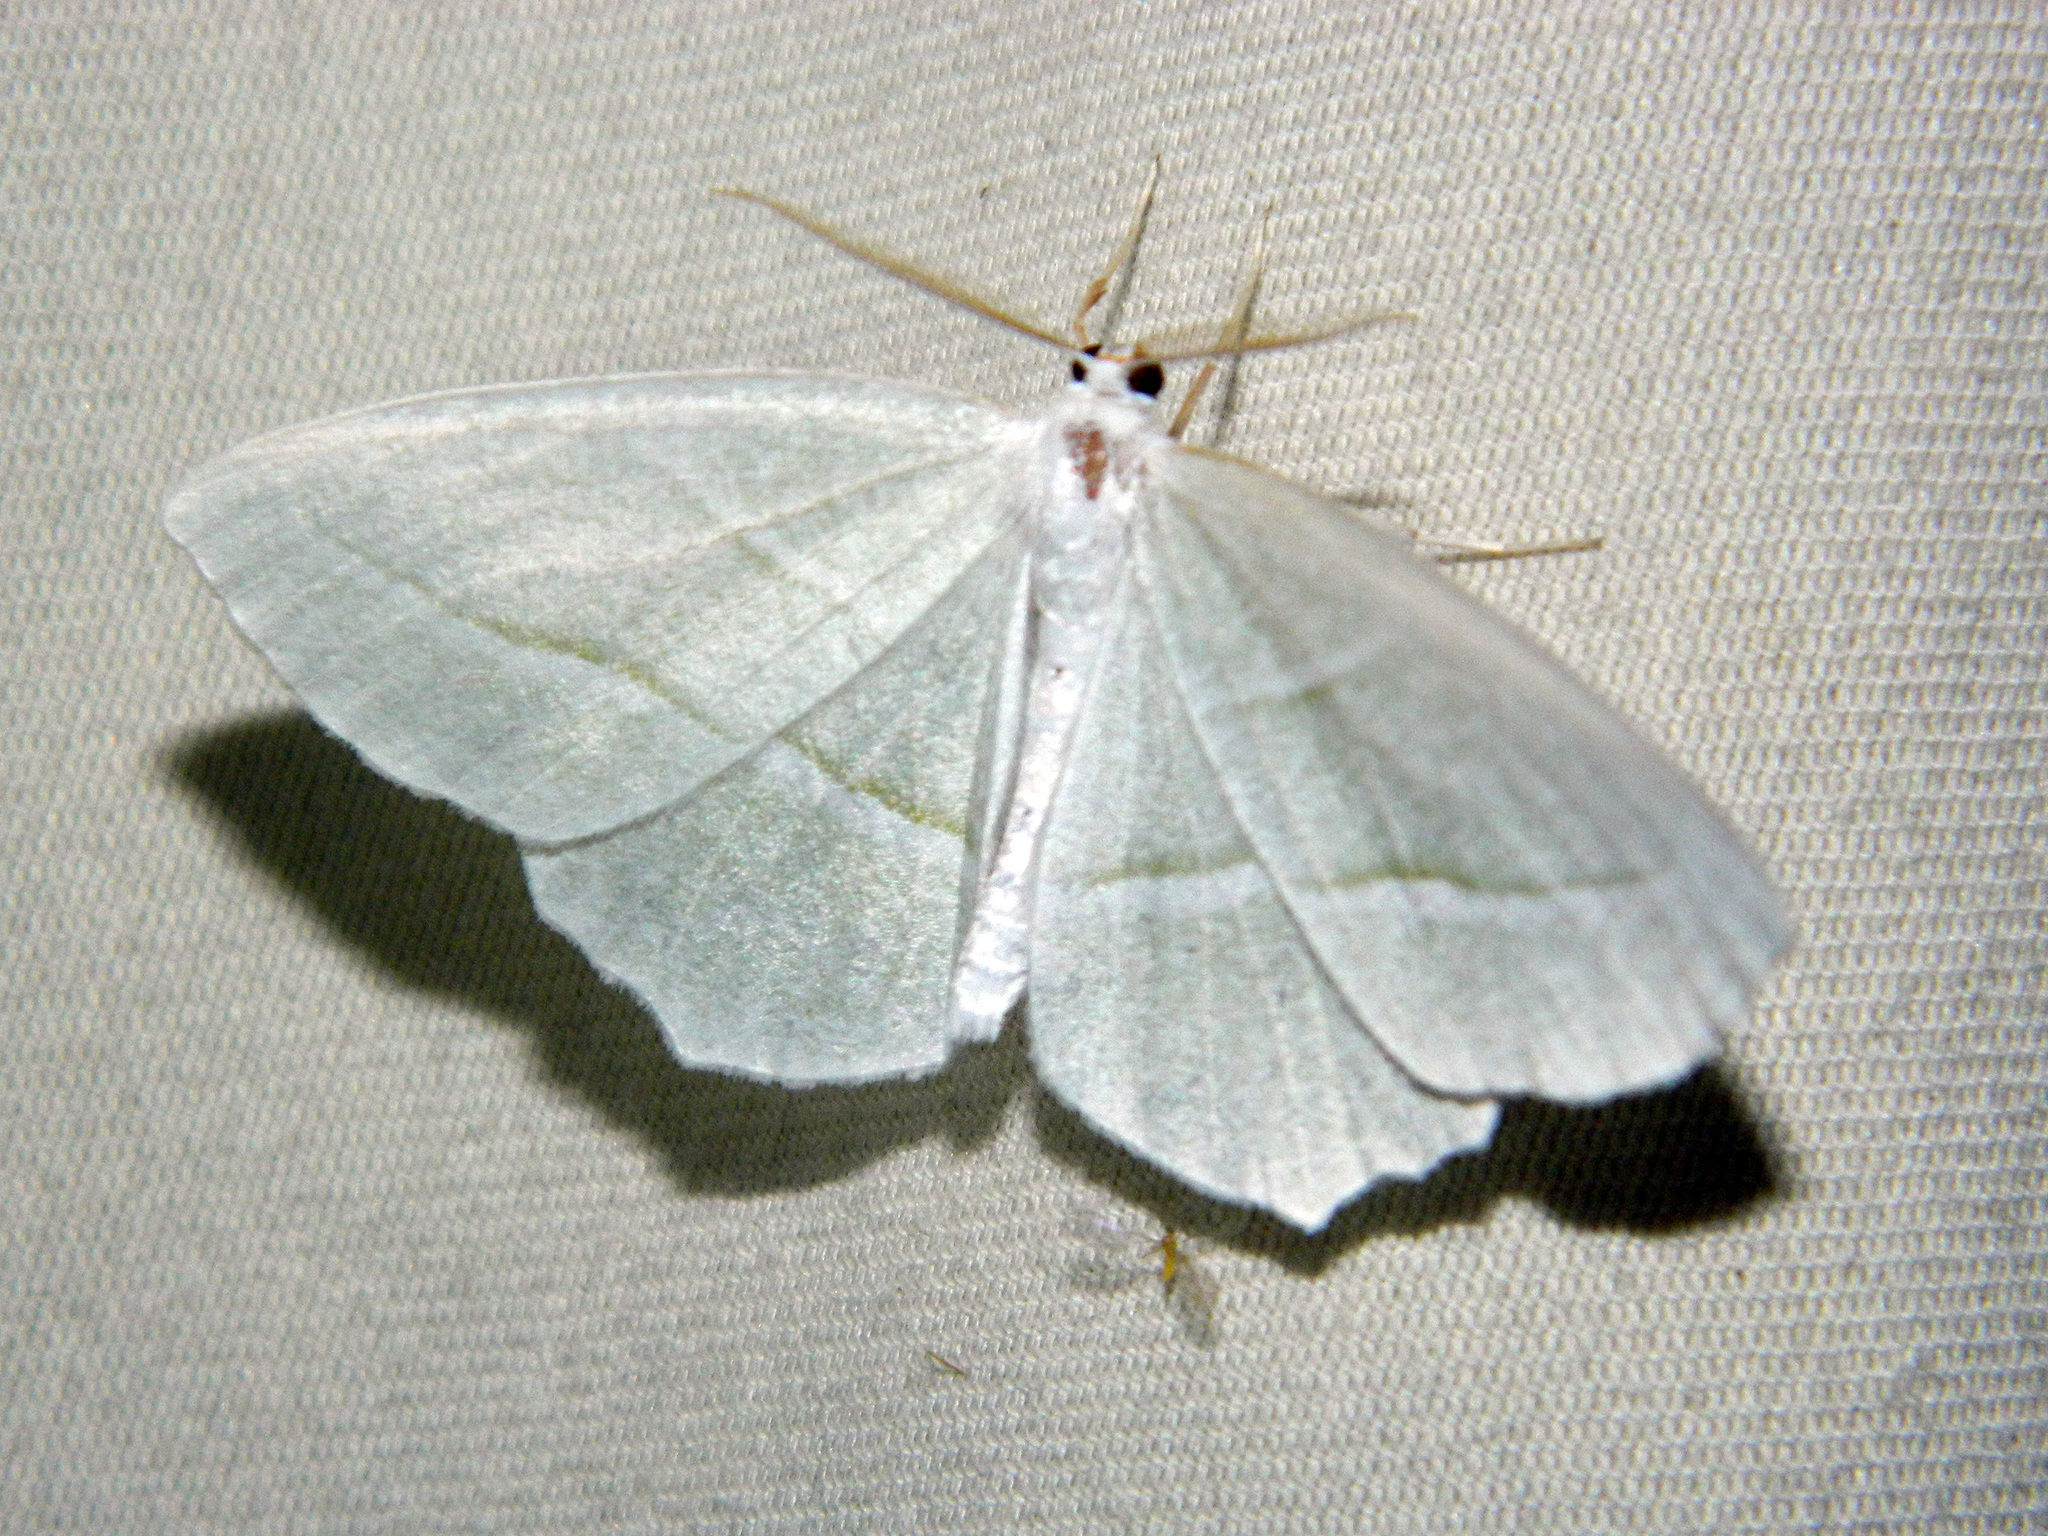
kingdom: Animalia
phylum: Arthropoda
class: Insecta
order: Lepidoptera
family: Geometridae
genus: Campaea
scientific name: Campaea perlata
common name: Fringed looper
